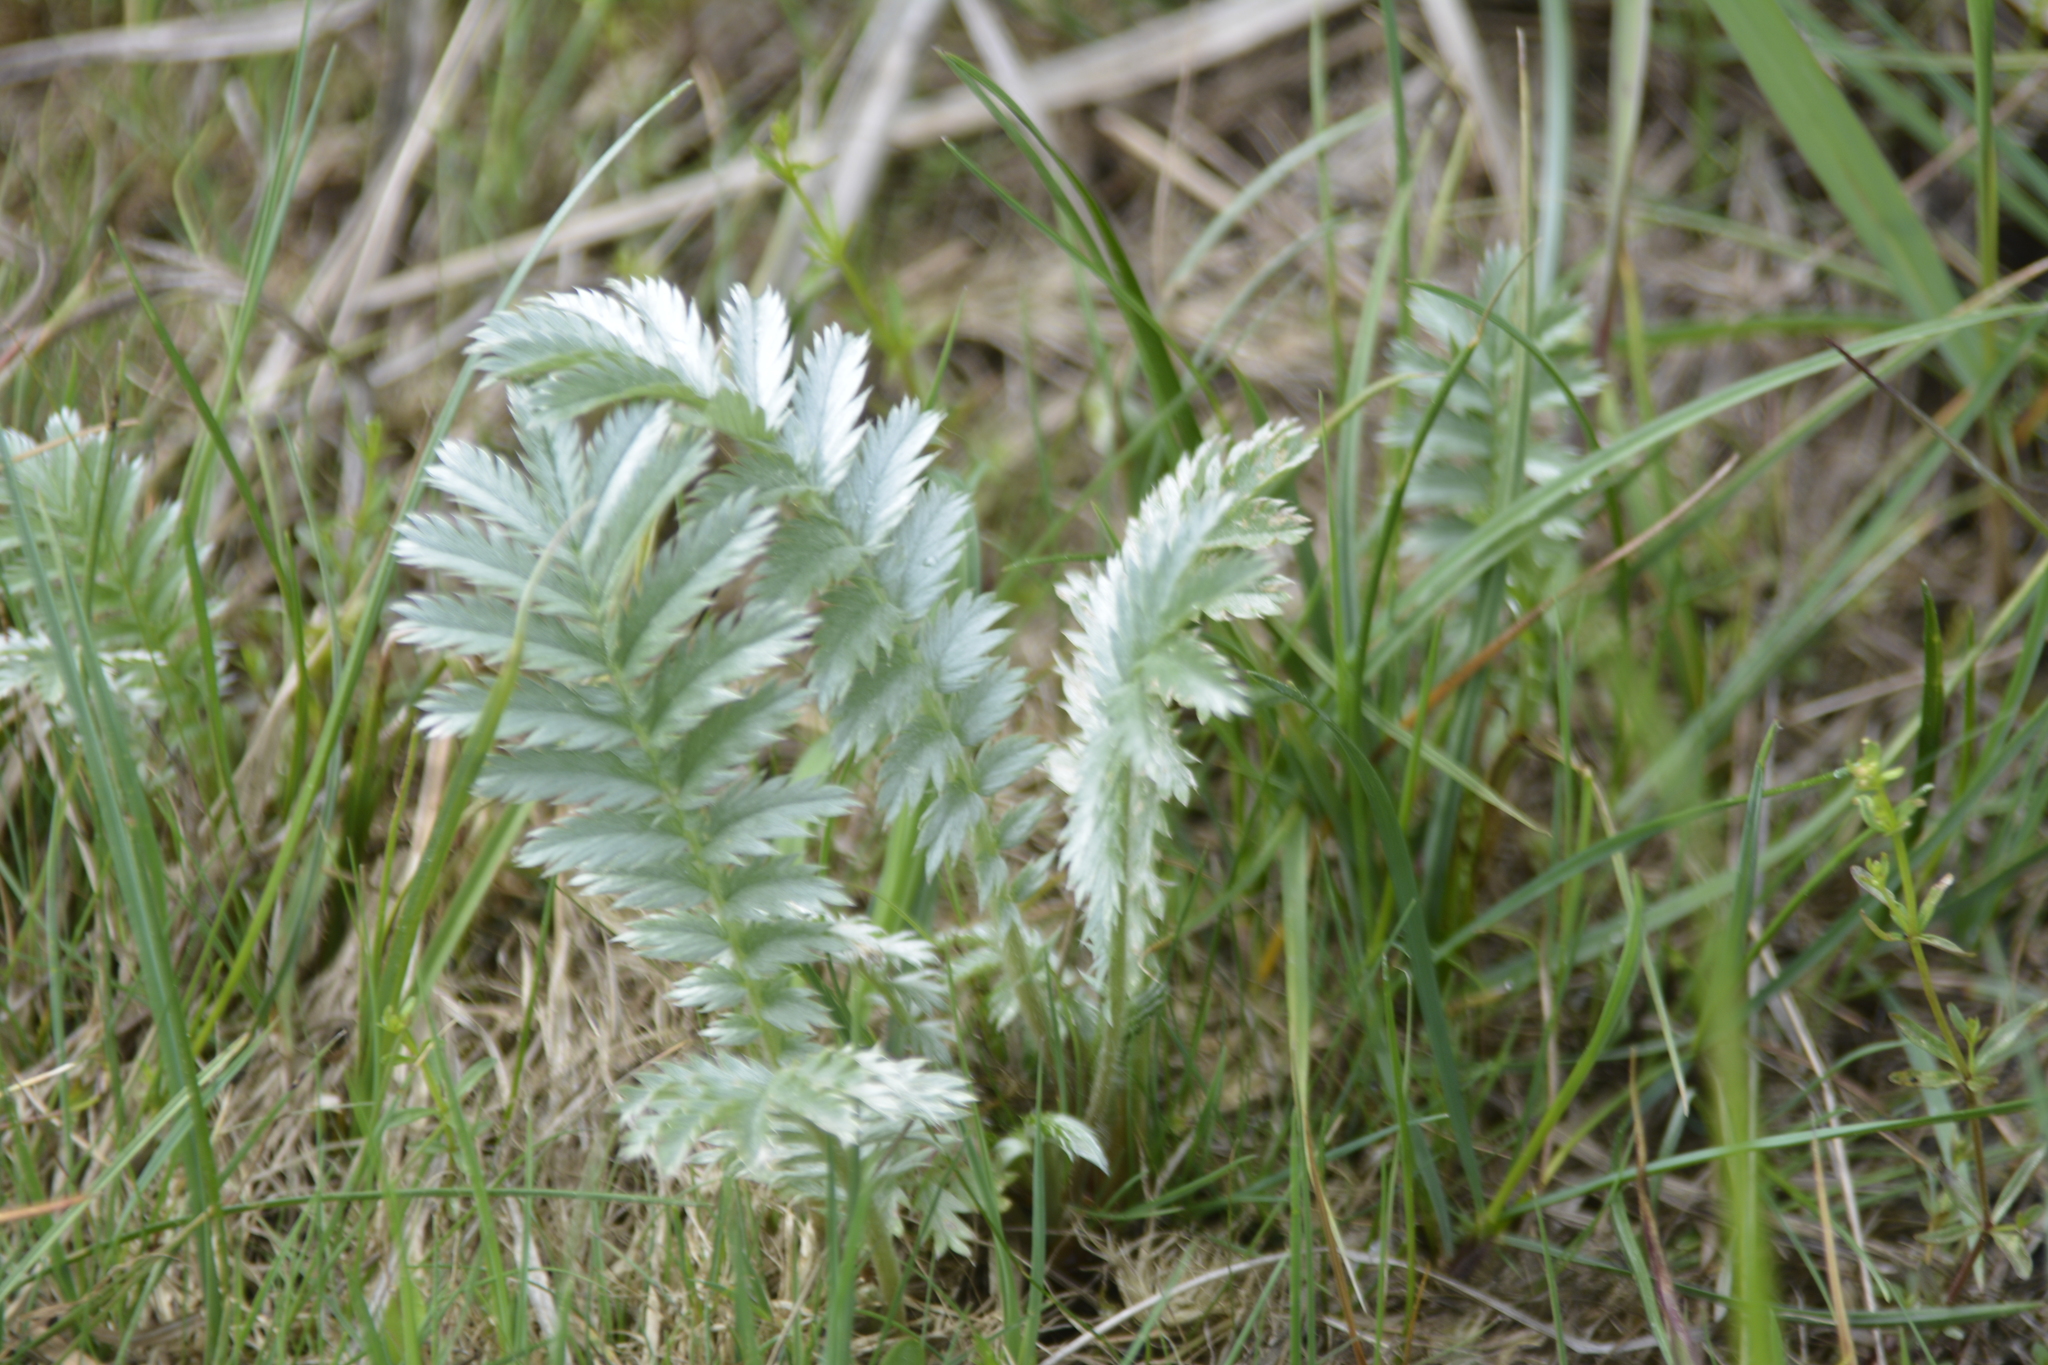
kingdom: Plantae
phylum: Tracheophyta
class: Magnoliopsida
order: Rosales
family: Rosaceae
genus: Argentina
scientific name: Argentina anserina
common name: Common silverweed
